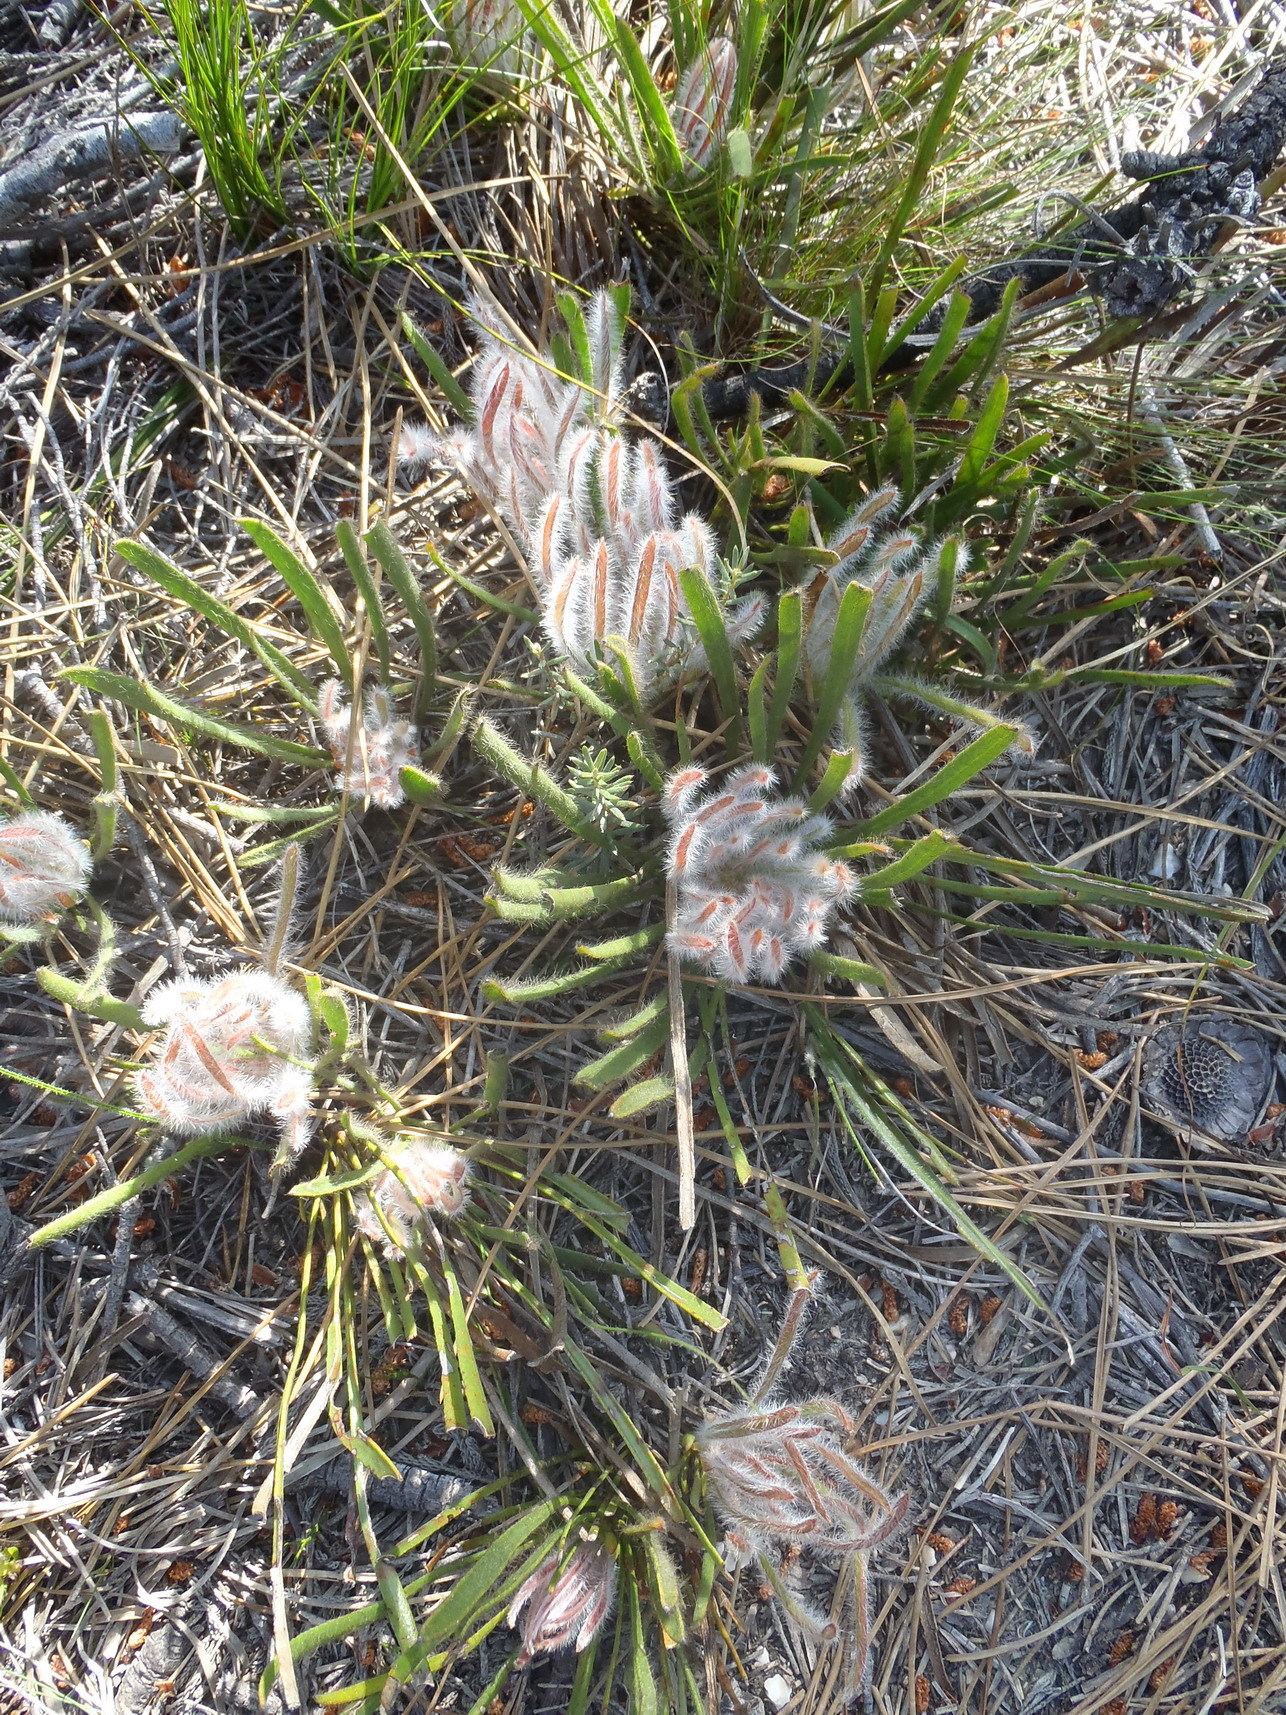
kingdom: Plantae
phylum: Tracheophyta
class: Magnoliopsida
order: Proteales
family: Proteaceae
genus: Protea
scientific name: Protea aspera
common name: Rough-leaf sugarbush
